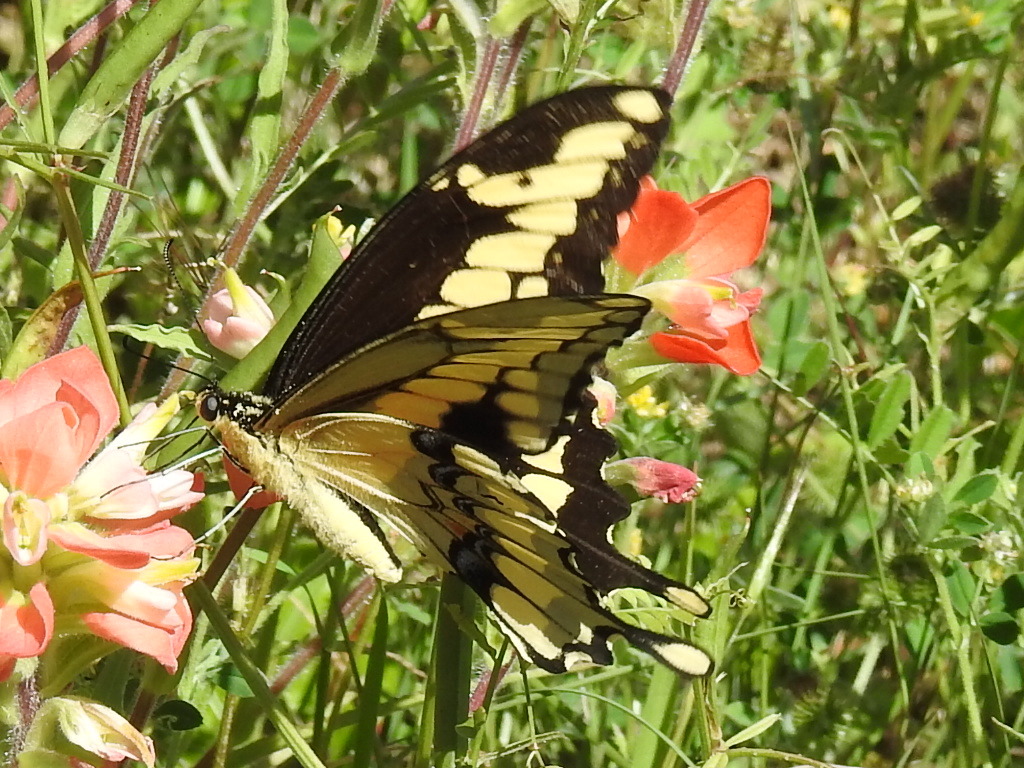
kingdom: Animalia
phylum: Arthropoda
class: Insecta
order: Lepidoptera
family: Papilionidae
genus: Papilio
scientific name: Papilio cresphontes
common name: Giant swallowtail
